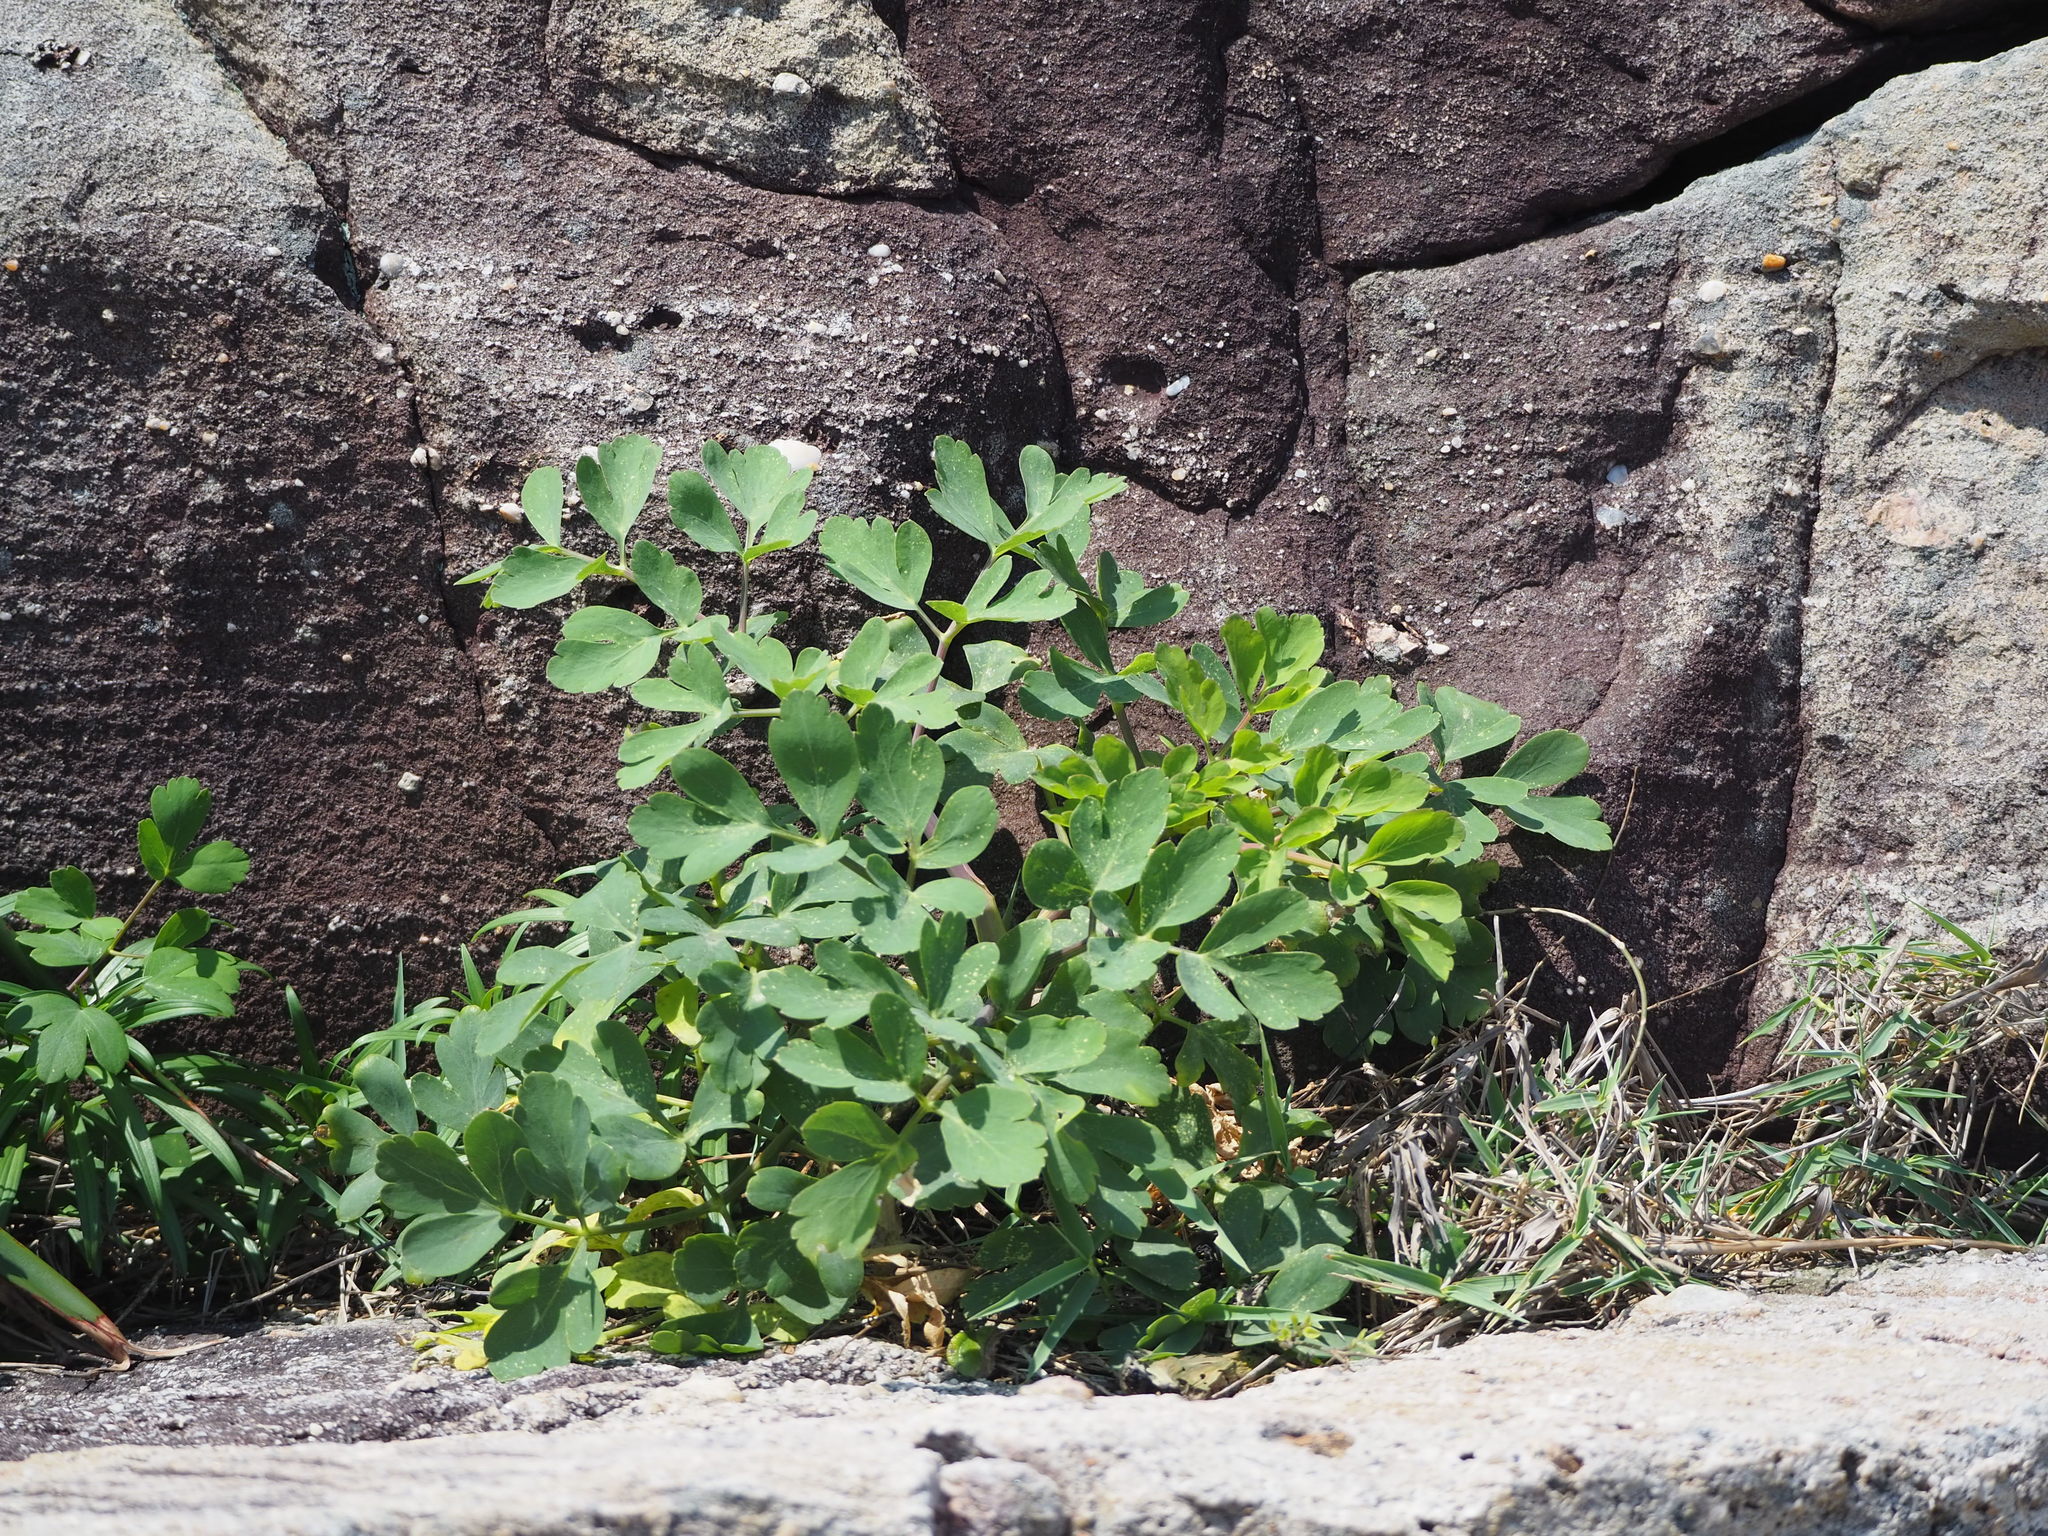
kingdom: Plantae
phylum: Tracheophyta
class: Magnoliopsida
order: Apiales
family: Apiaceae
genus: Peucedanum
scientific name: Peucedanum japonicum
